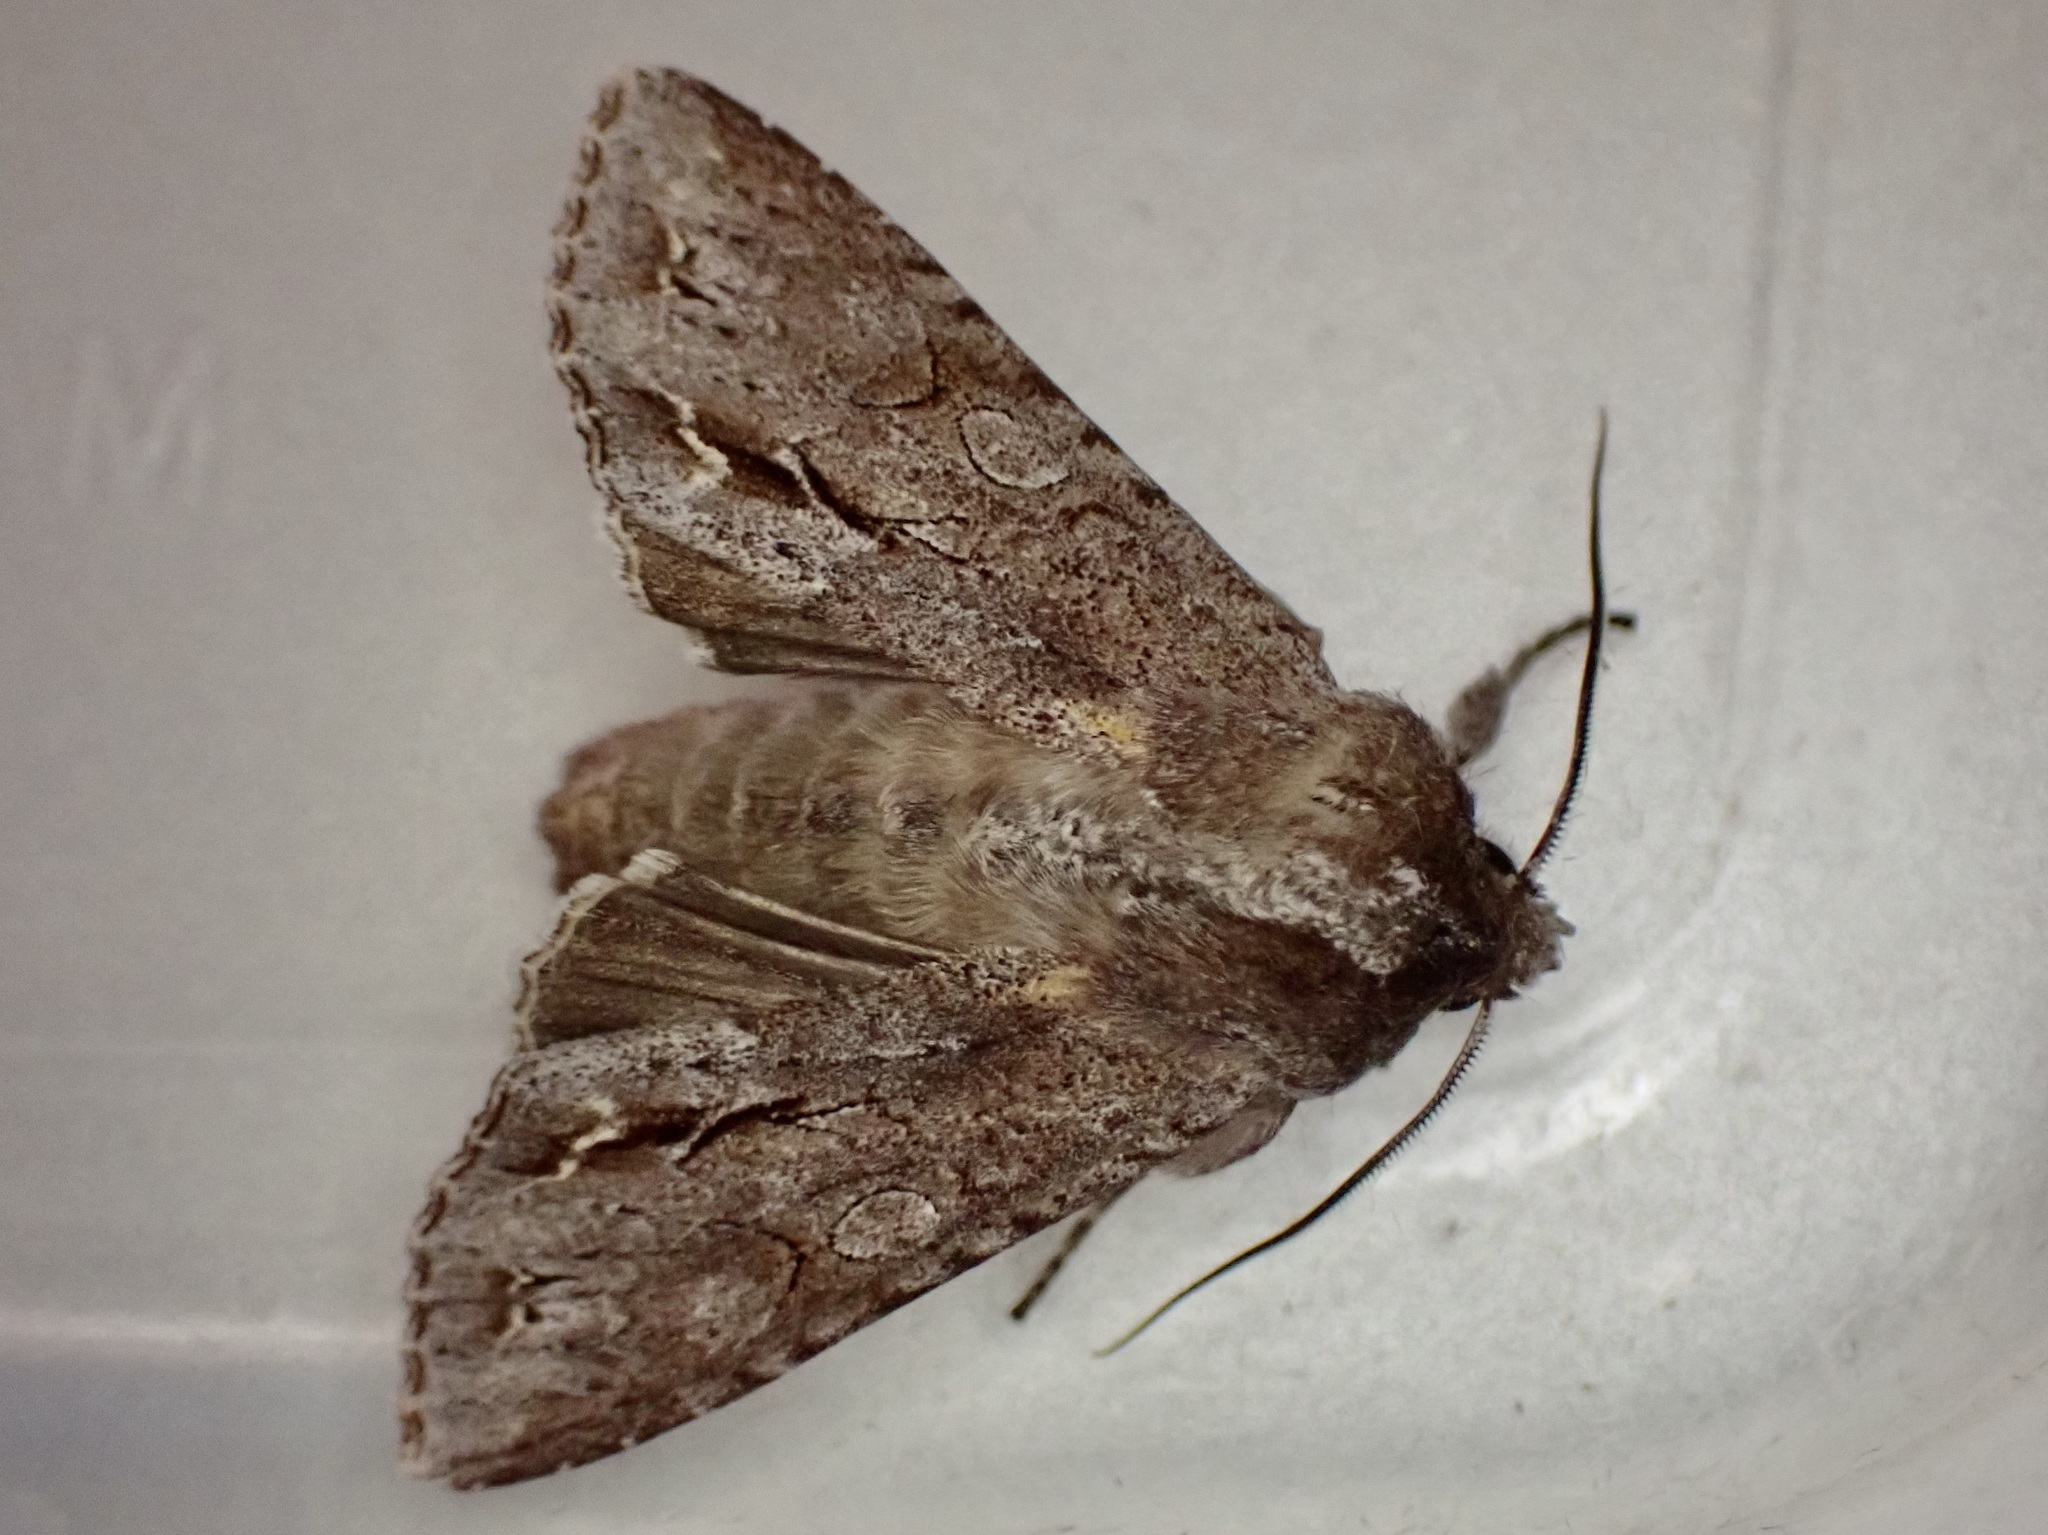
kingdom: Animalia
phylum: Arthropoda
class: Insecta
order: Lepidoptera
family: Noctuidae
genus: Ichneutica
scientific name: Ichneutica
